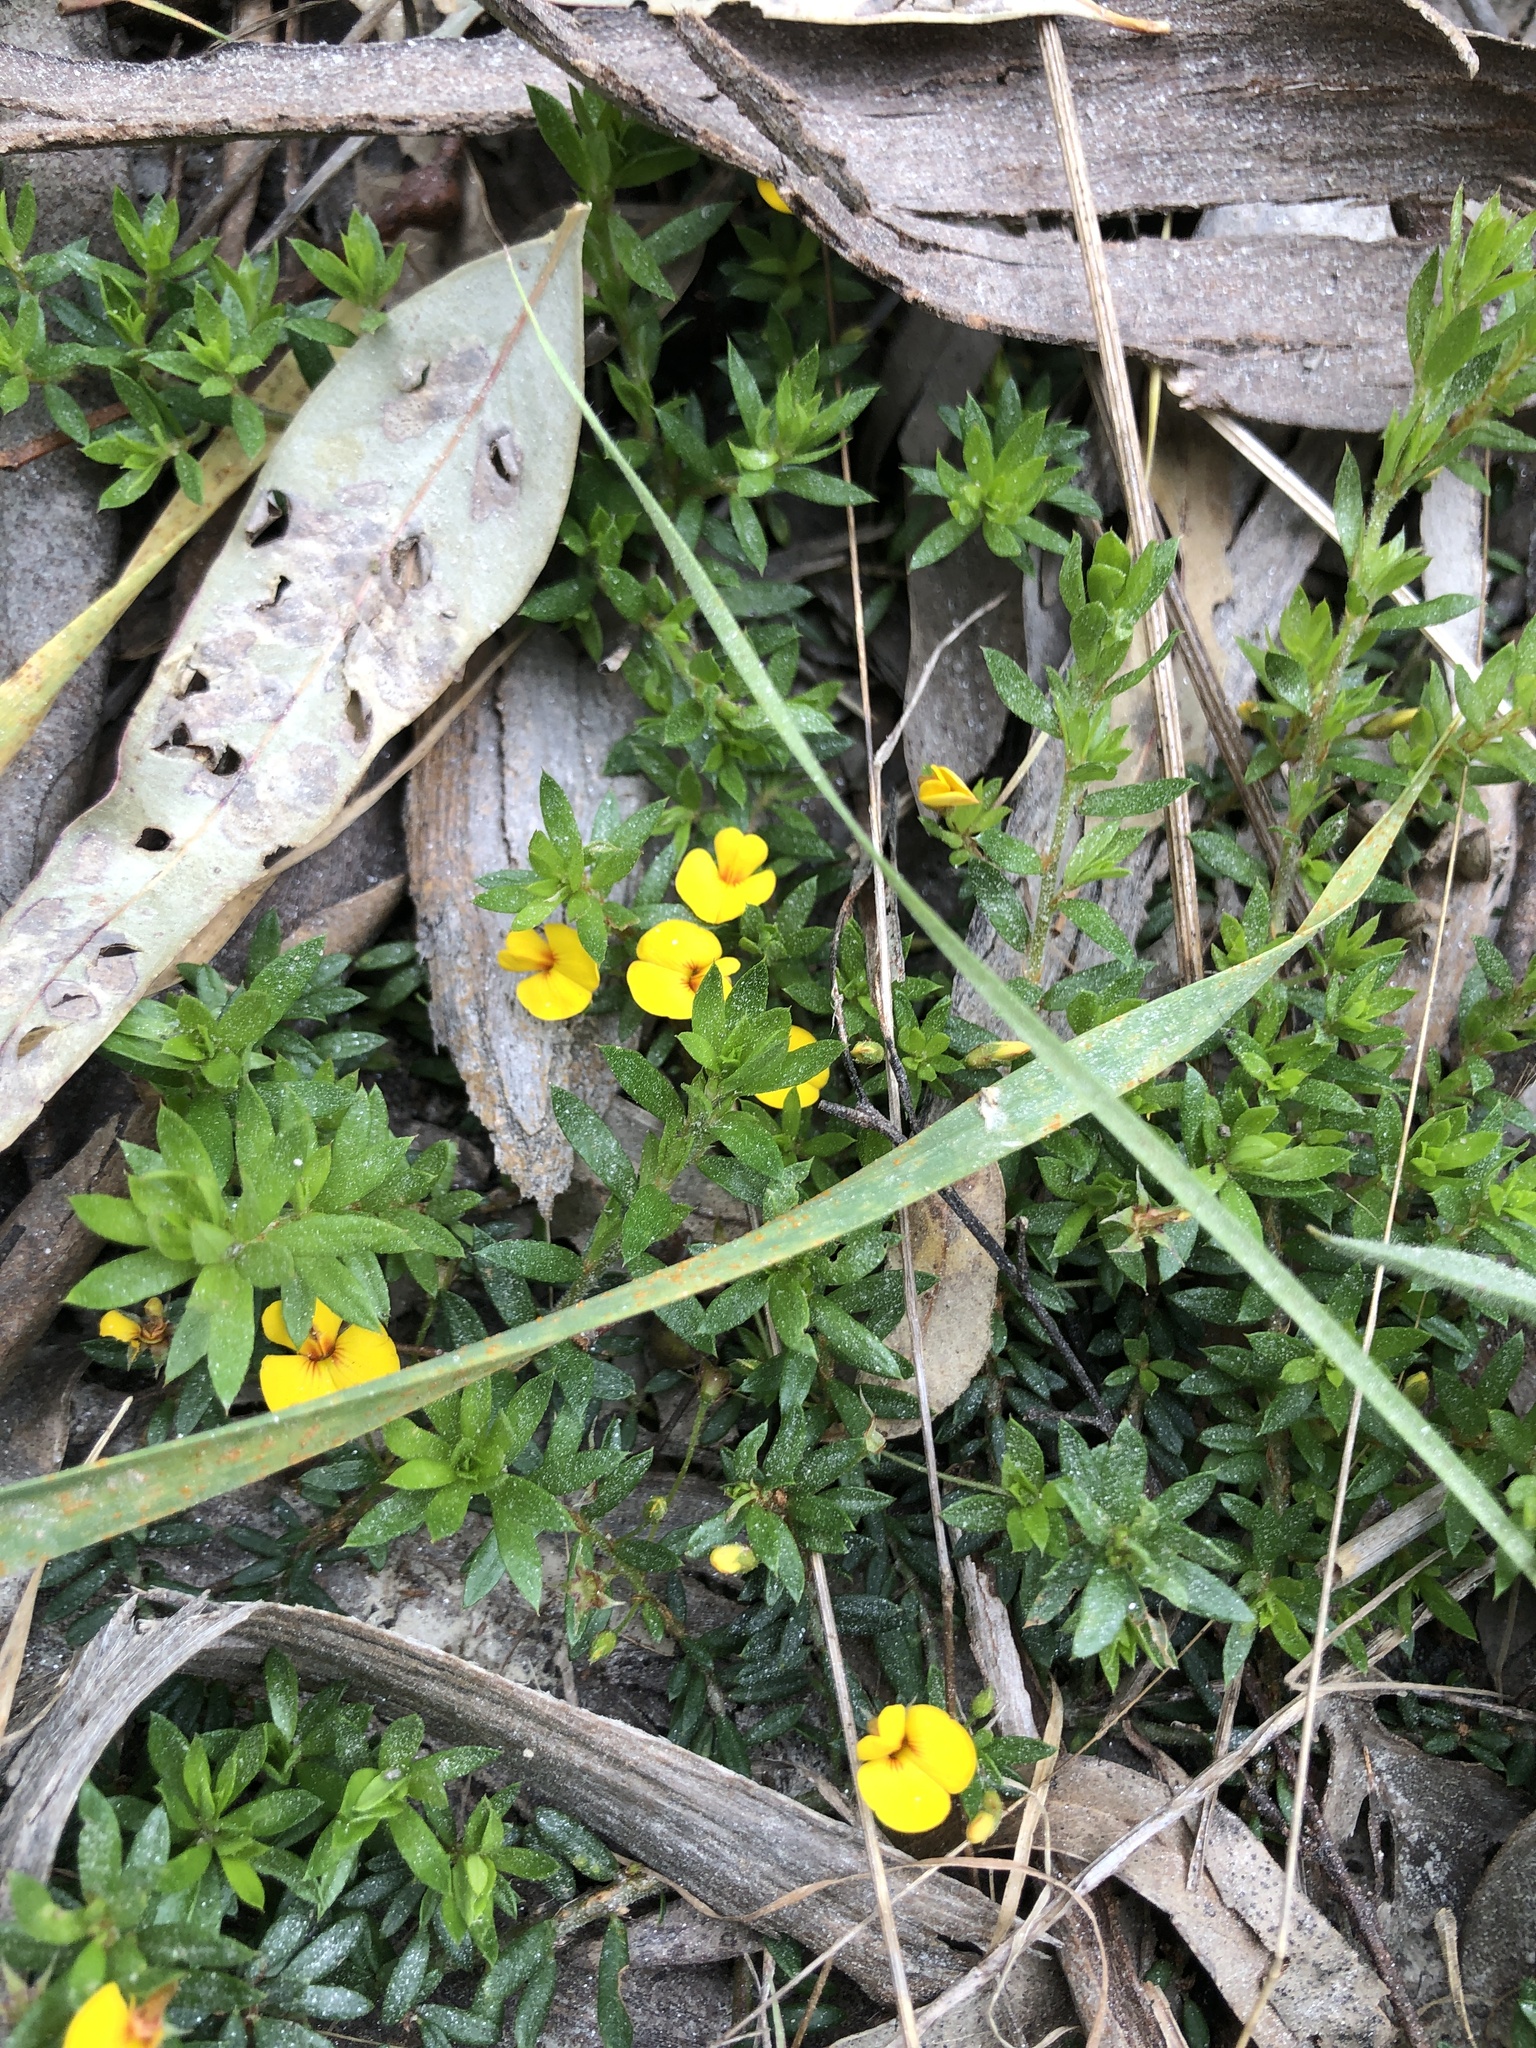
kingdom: Plantae
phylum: Tracheophyta
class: Magnoliopsida
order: Fabales
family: Fabaceae
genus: Pultenaea
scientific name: Pultenaea pedunculata
